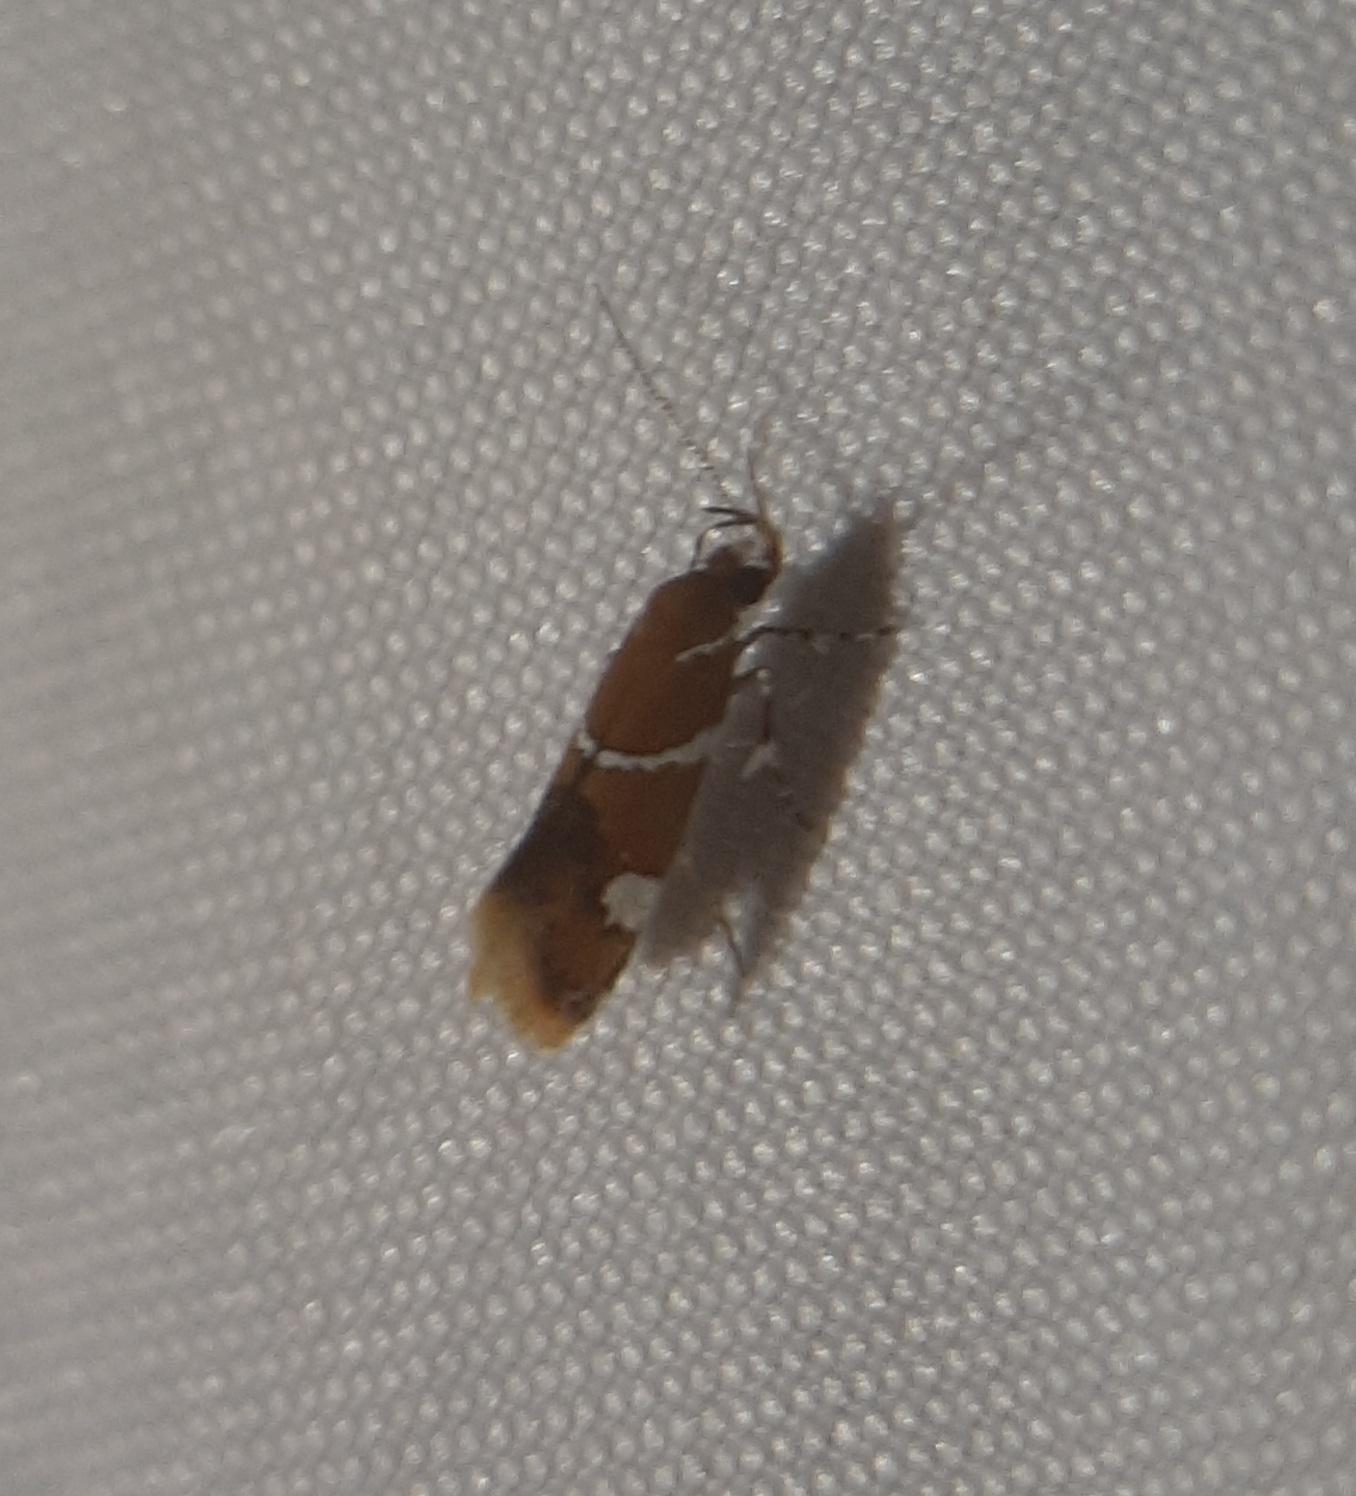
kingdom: Animalia
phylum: Arthropoda
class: Insecta
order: Lepidoptera
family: Oecophoridae
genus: Promalactis
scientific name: Promalactis suzukiella
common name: Moth
